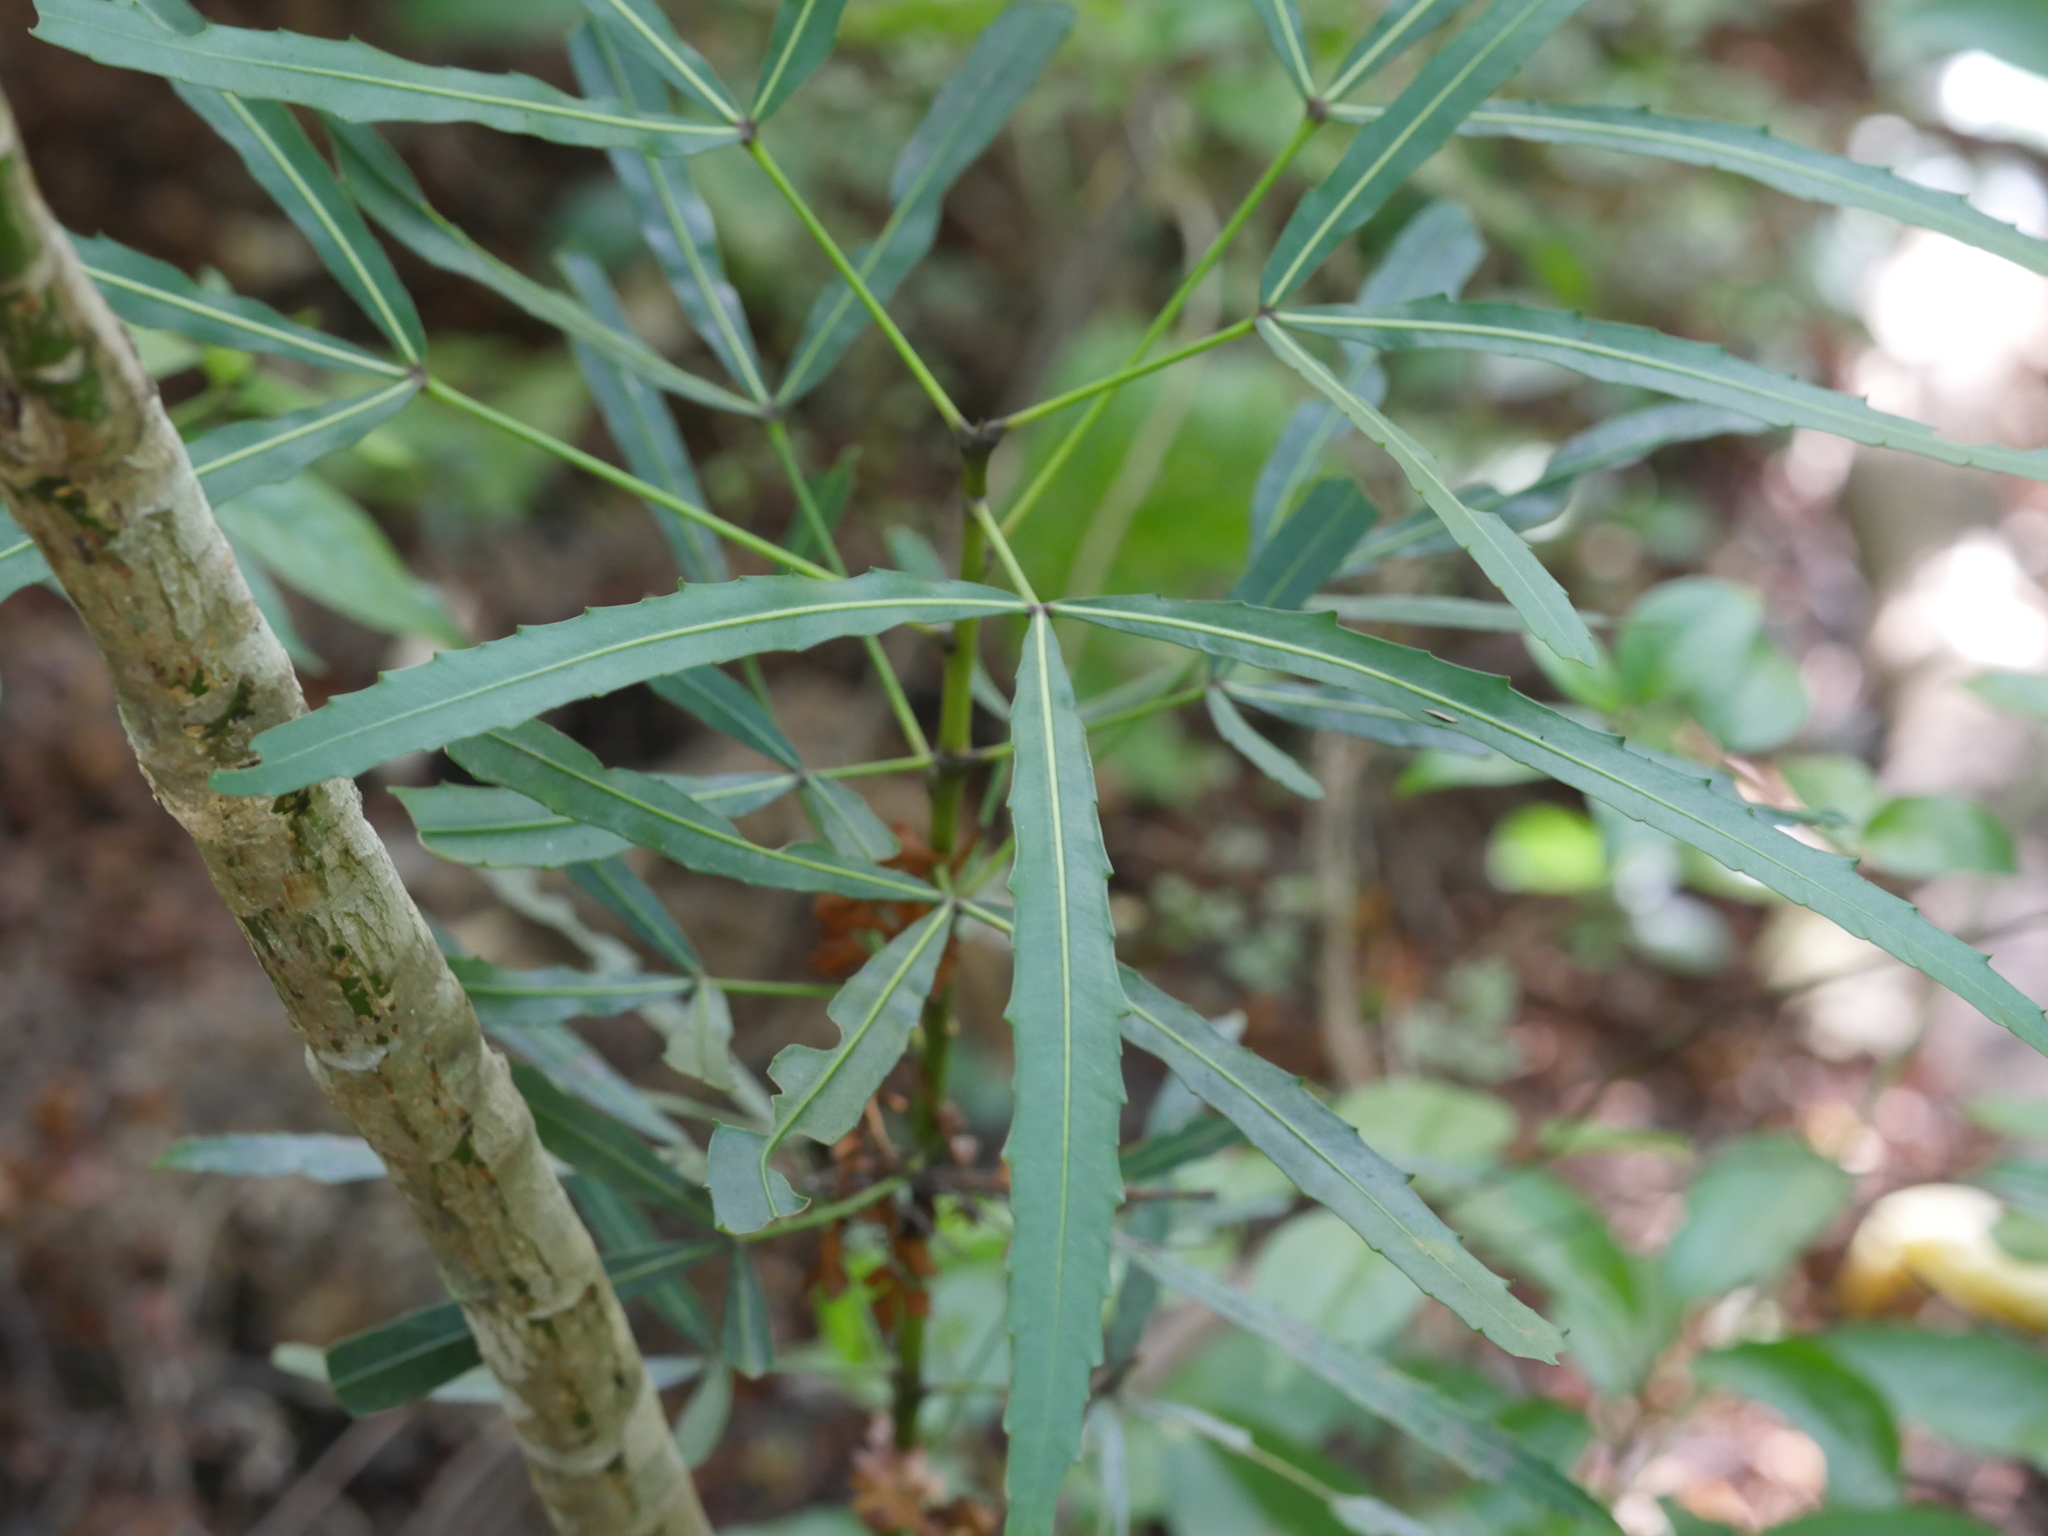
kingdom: Plantae
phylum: Tracheophyta
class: Magnoliopsida
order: Apiales
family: Araliaceae
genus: Pseudopanax
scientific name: Pseudopanax
